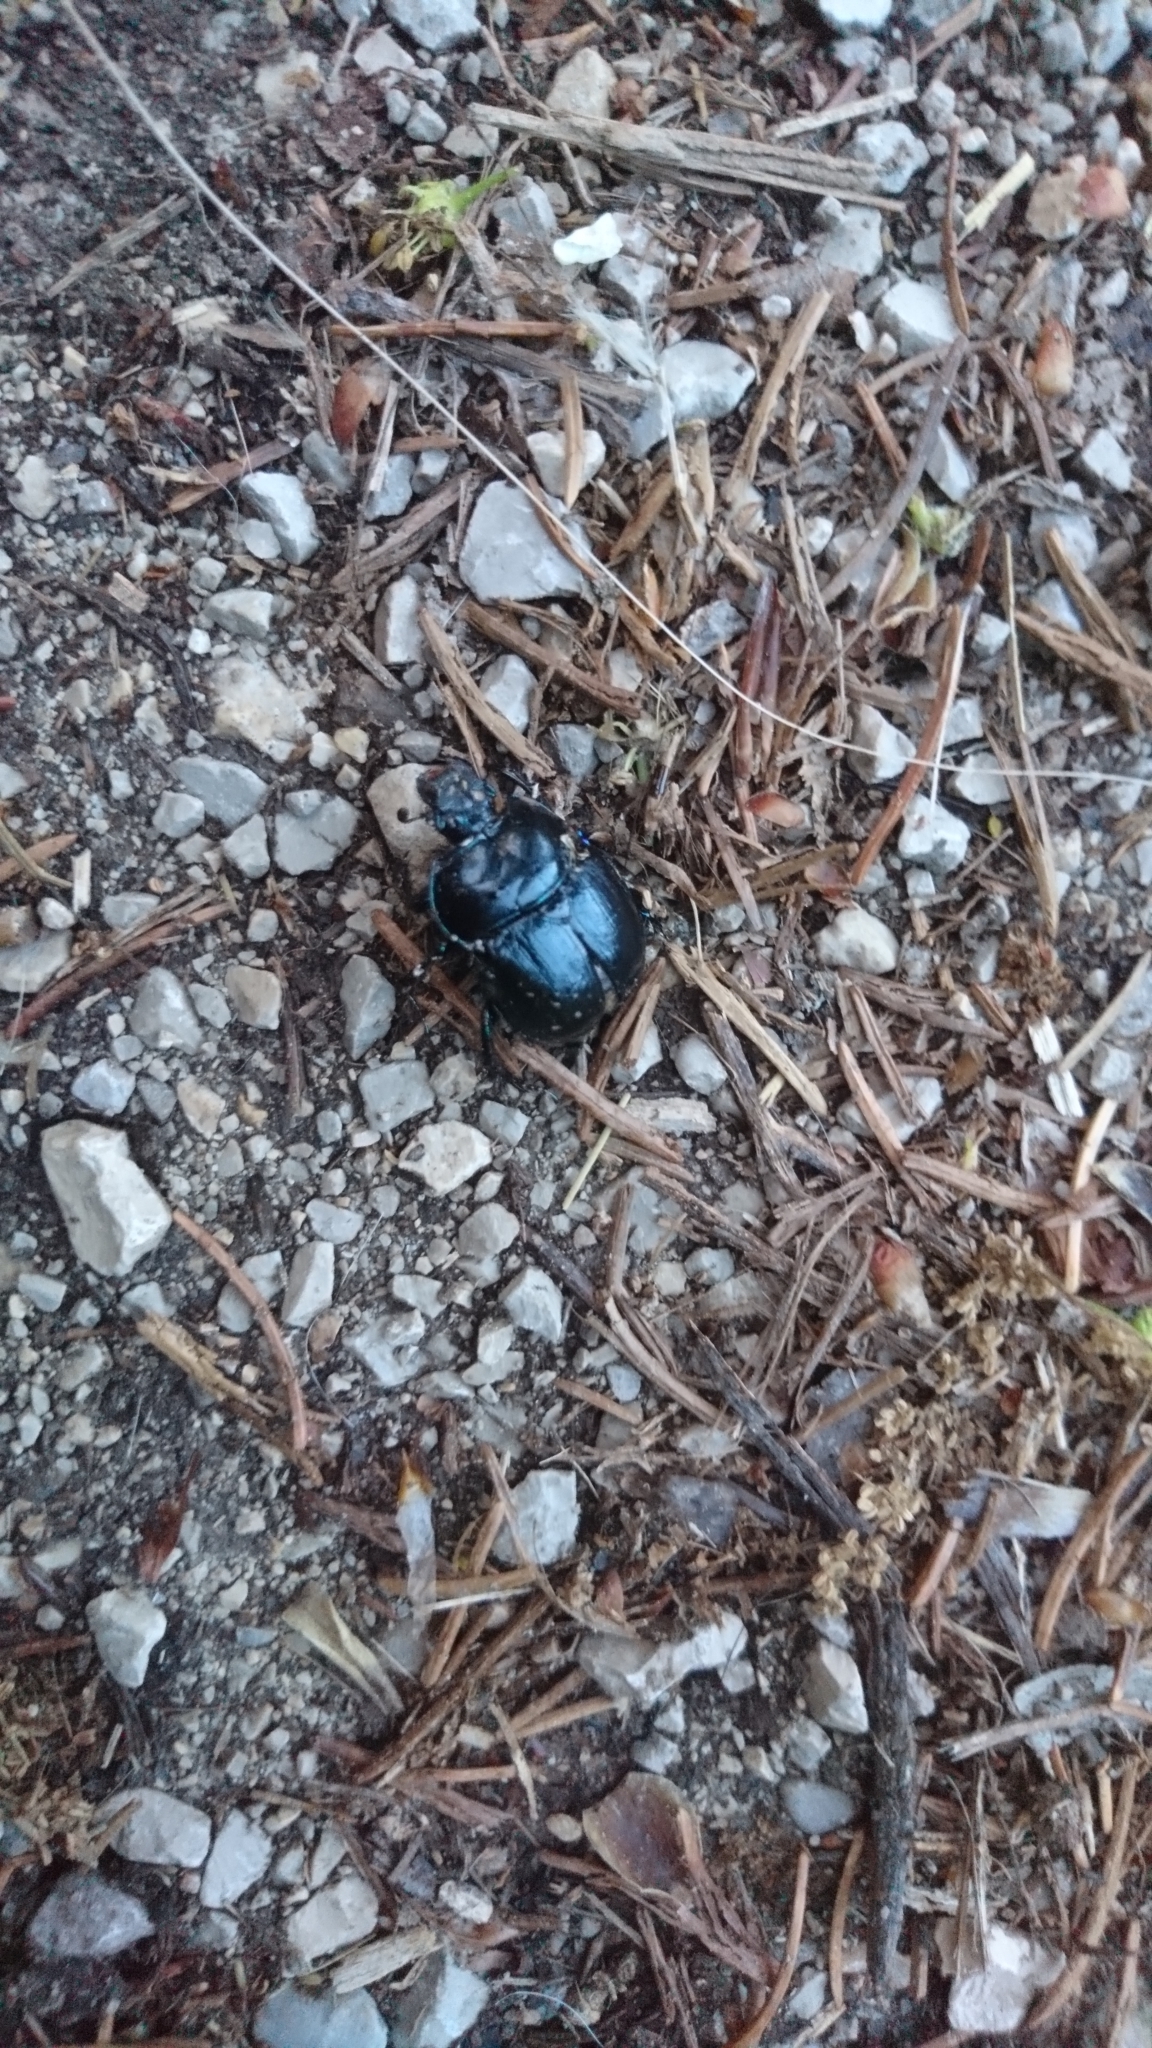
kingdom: Animalia
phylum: Arthropoda
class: Insecta
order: Coleoptera
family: Geotrupidae
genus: Anoplotrupes
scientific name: Anoplotrupes stercorosus
